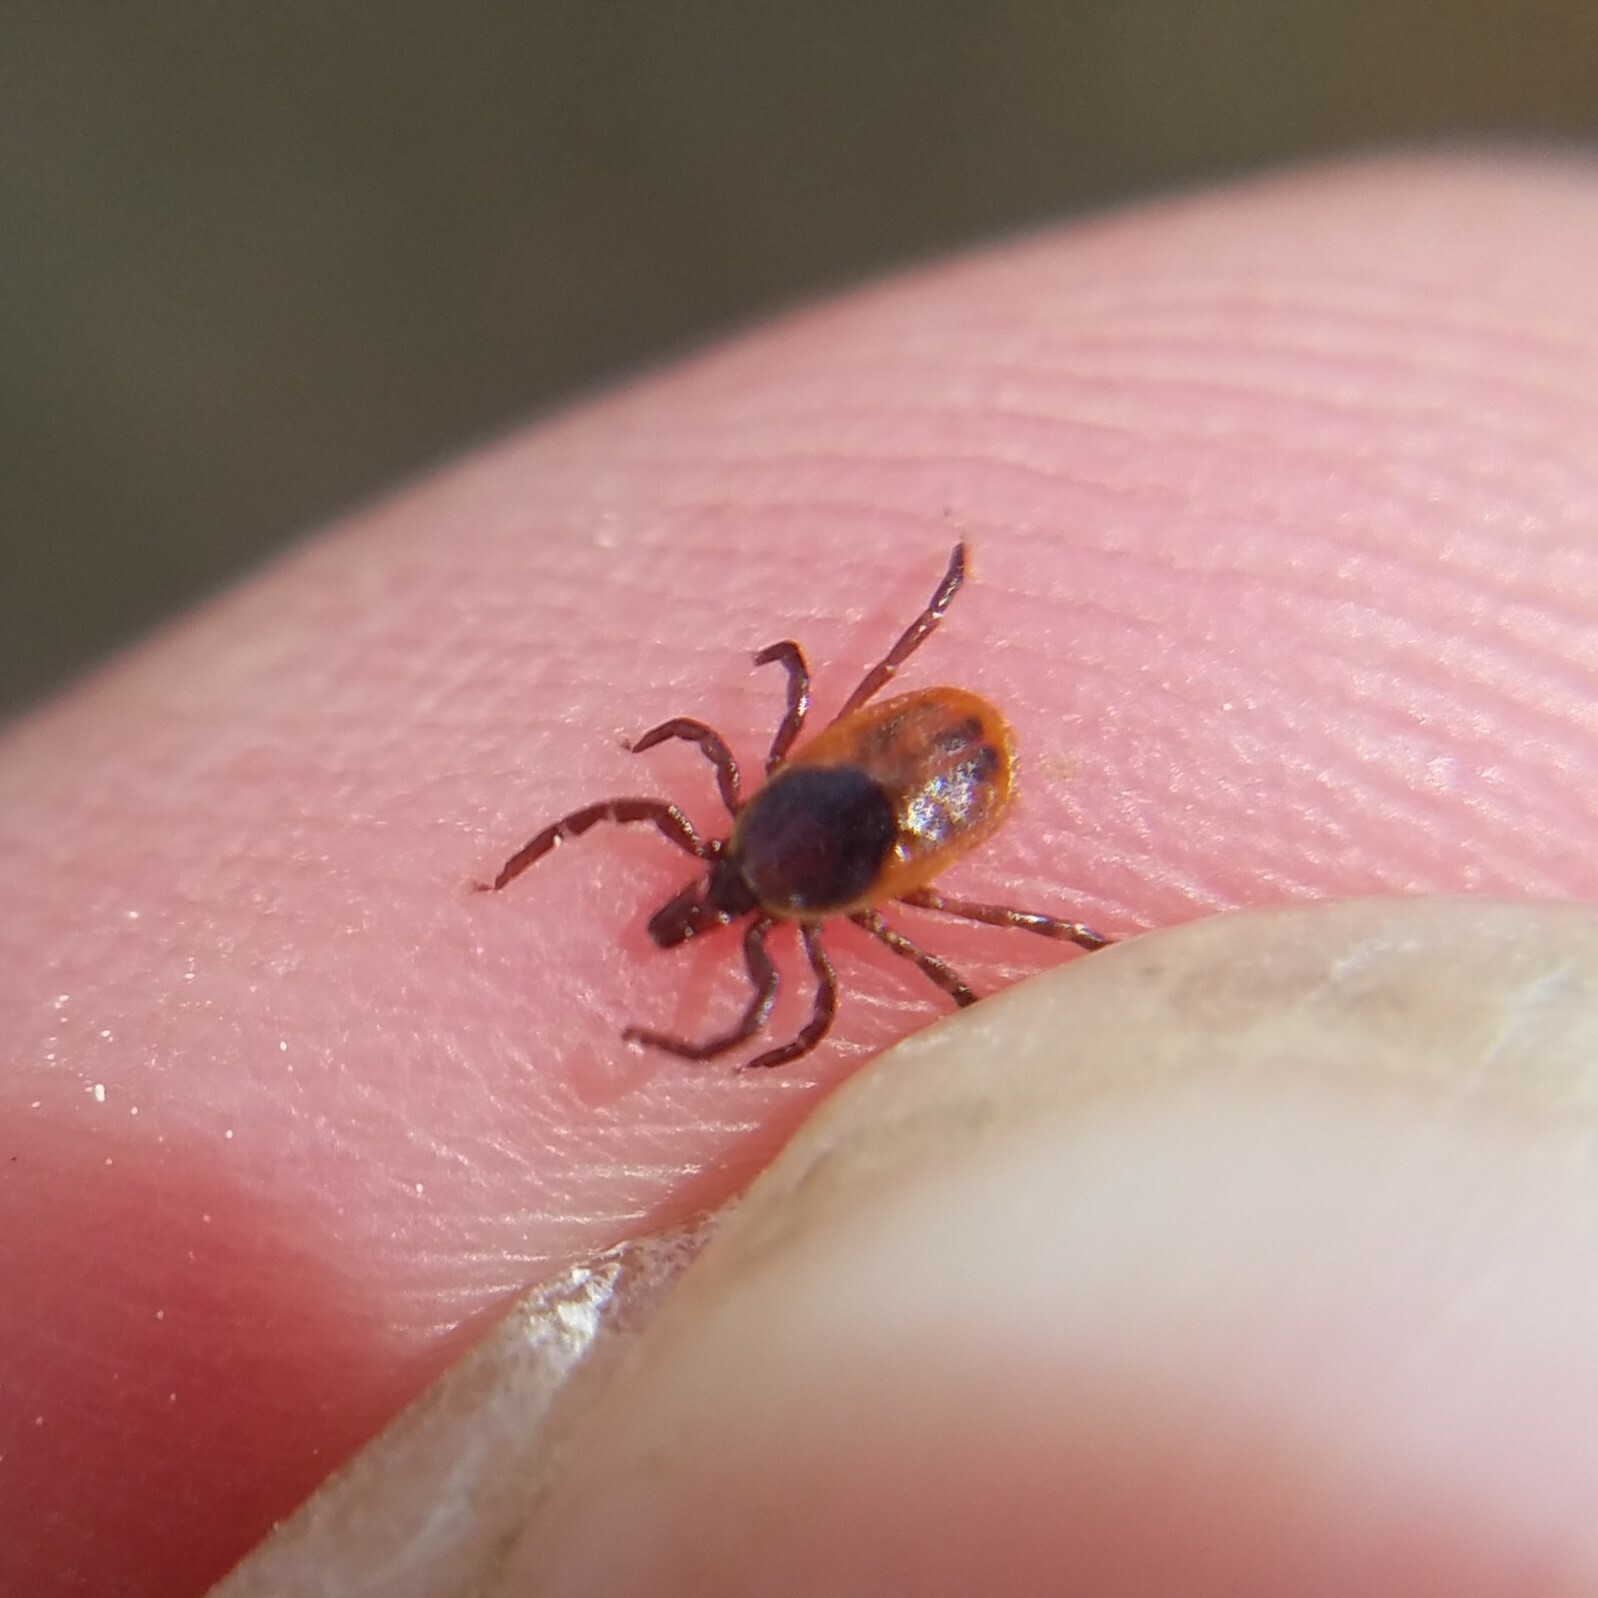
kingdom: Animalia
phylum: Arthropoda
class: Arachnida
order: Ixodida
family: Ixodidae
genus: Ixodes
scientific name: Ixodes scapularis
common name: Black legged tick
